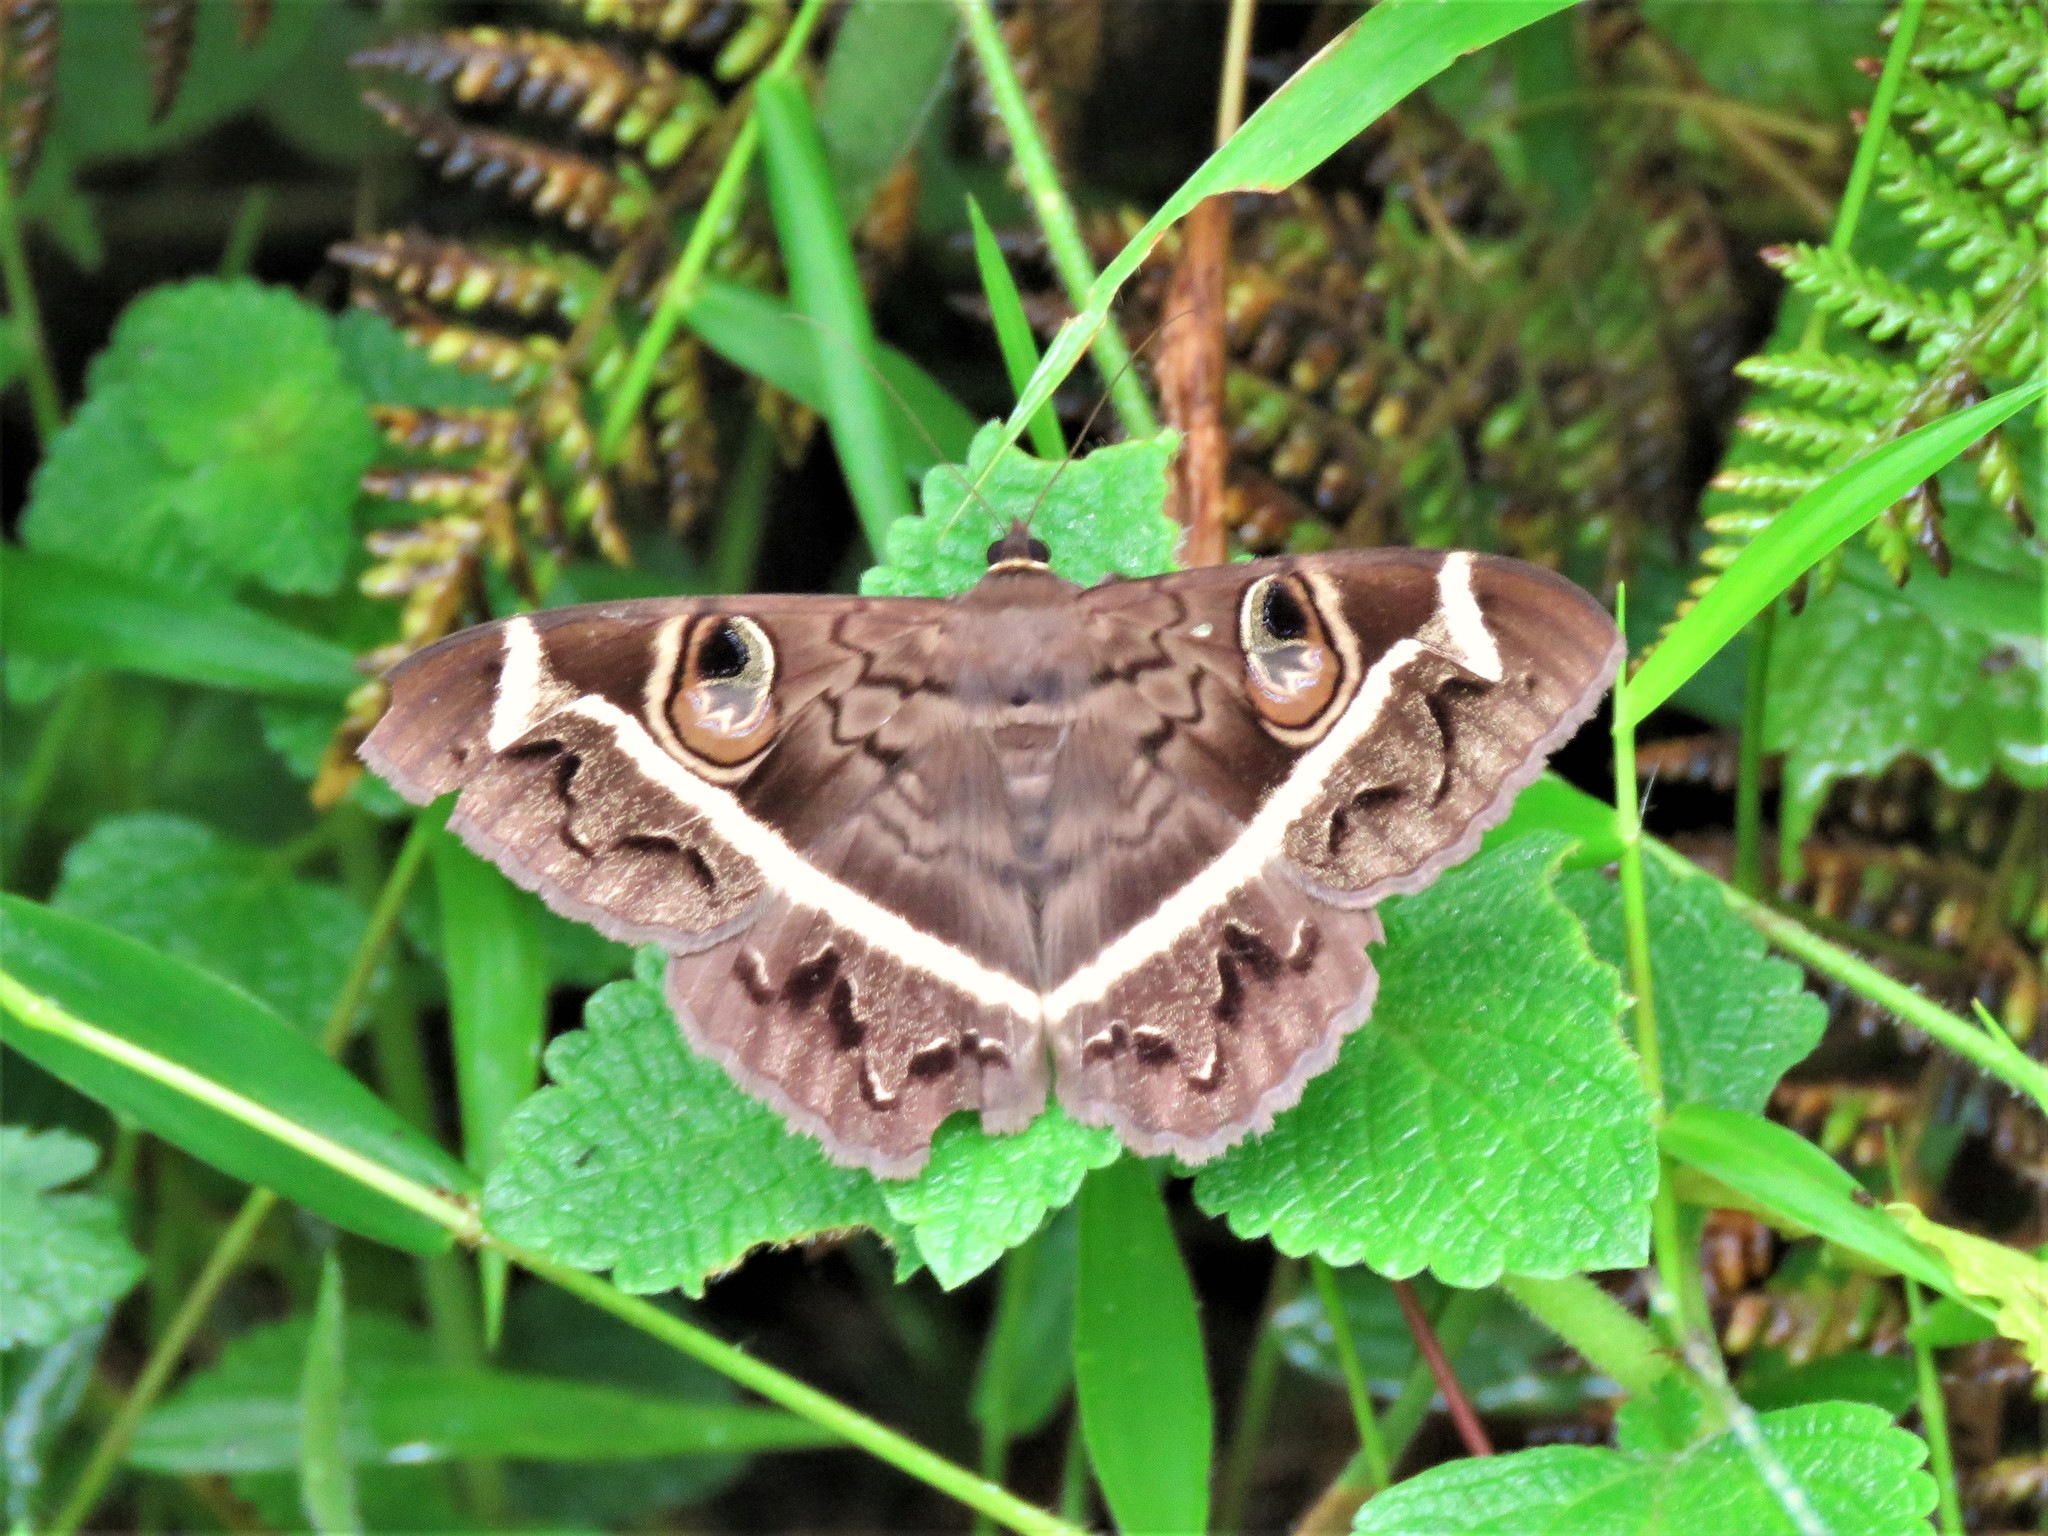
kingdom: Animalia
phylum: Arthropoda
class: Insecta
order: Lepidoptera
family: Erebidae
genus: Cyligramma
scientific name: Cyligramma magus
